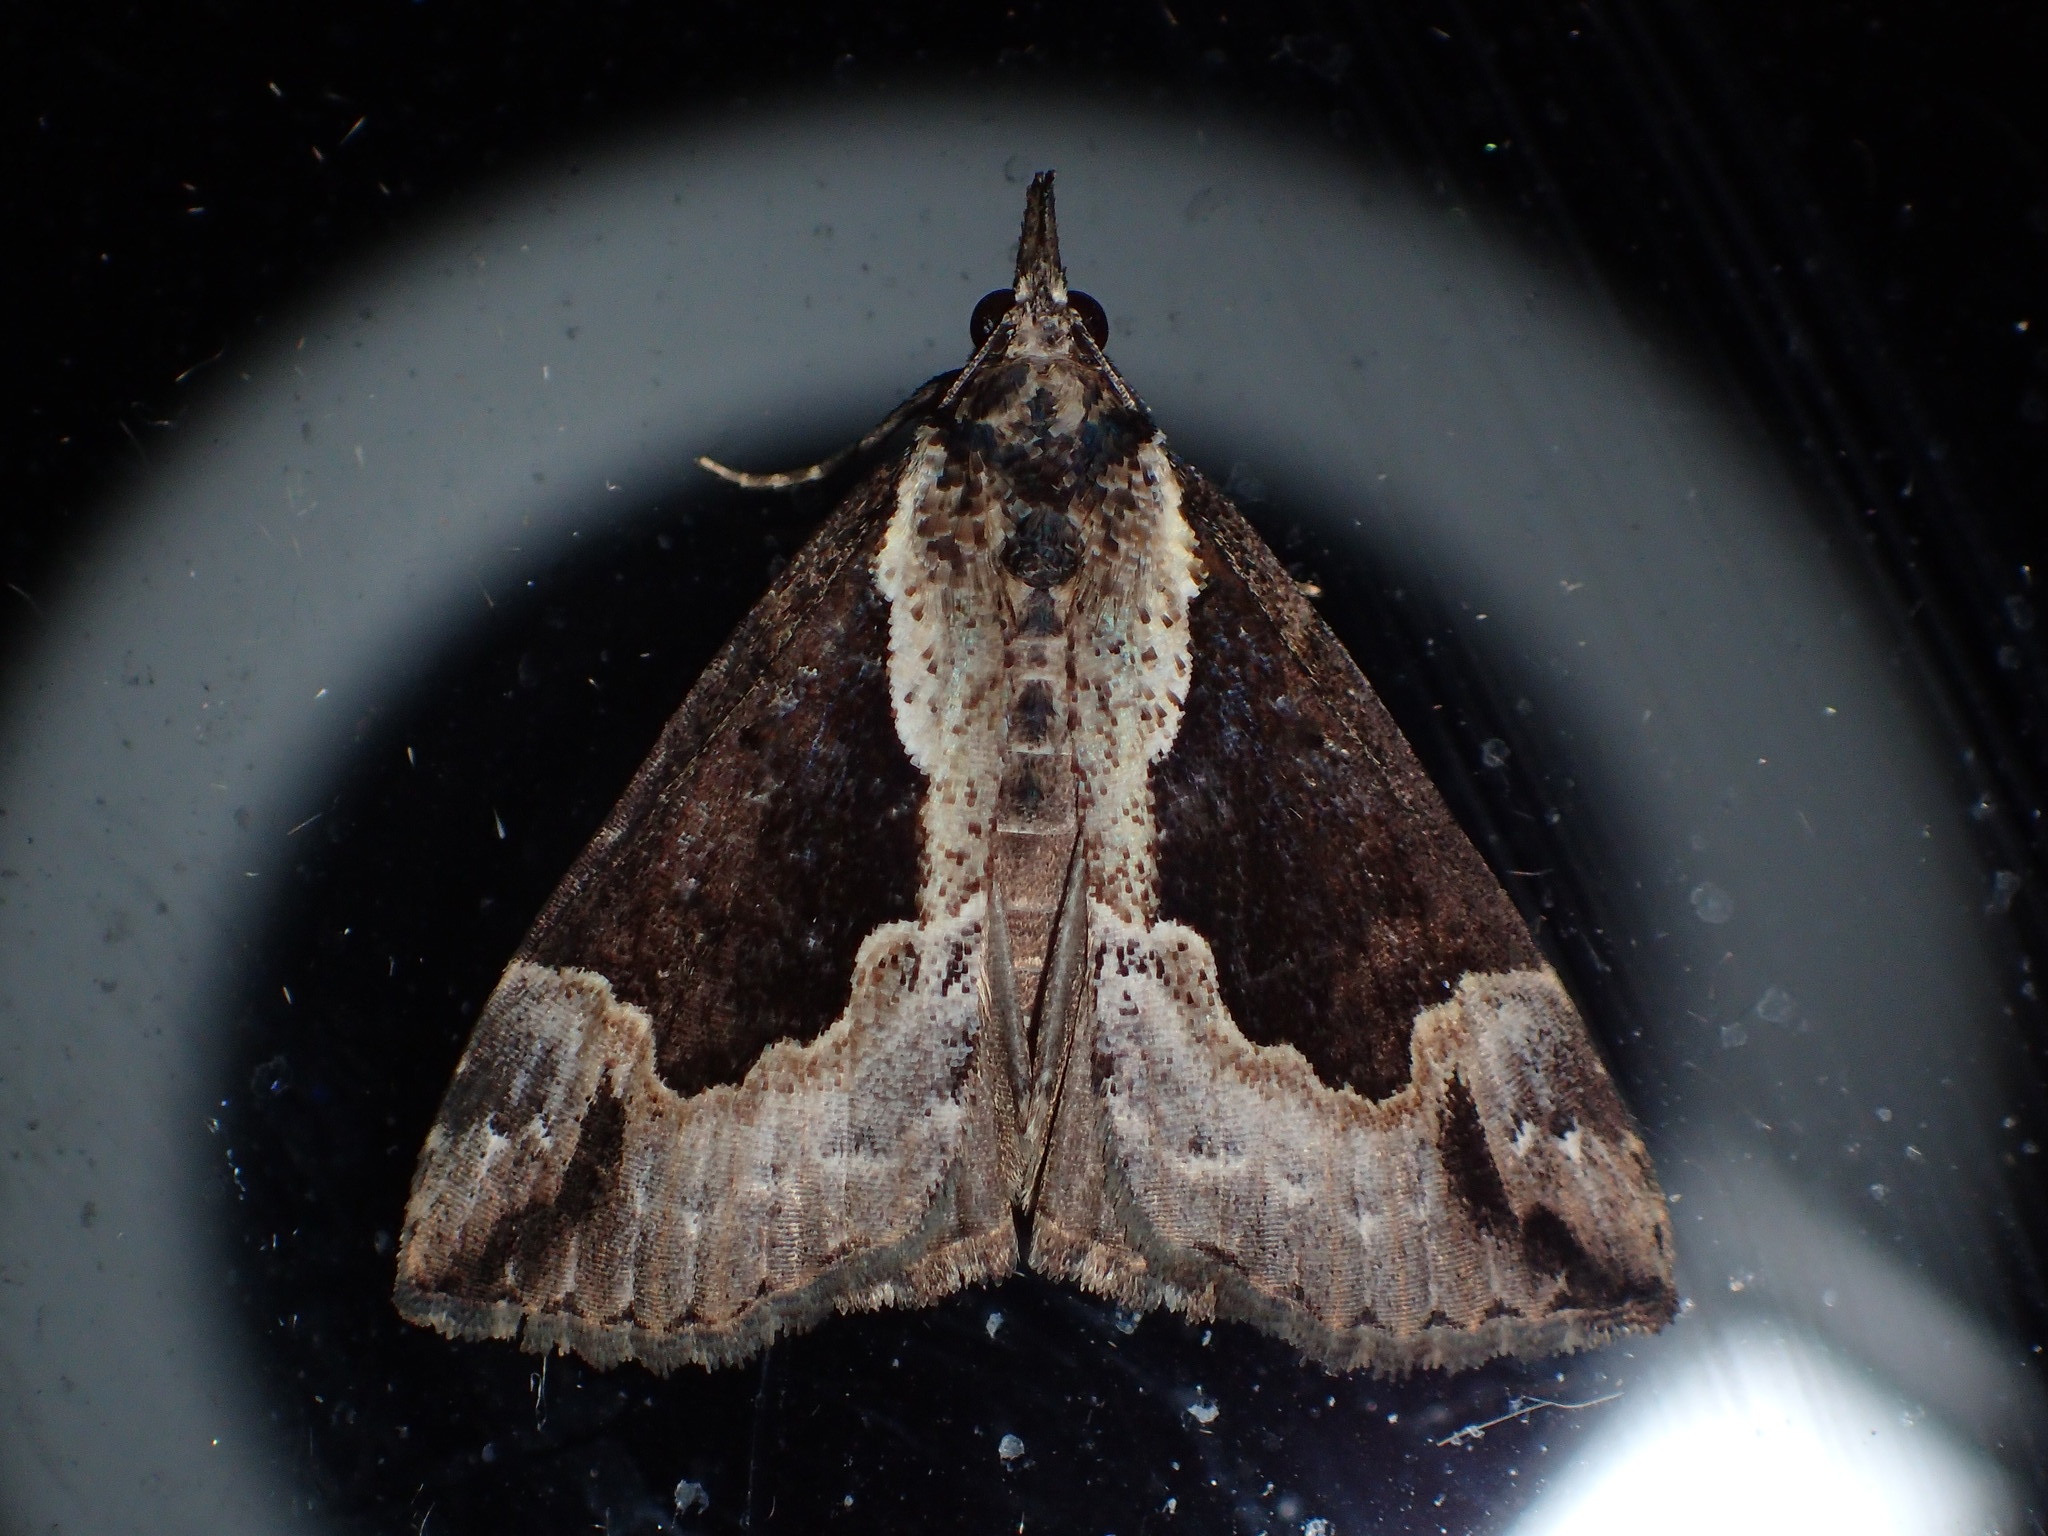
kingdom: Animalia
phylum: Arthropoda
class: Insecta
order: Lepidoptera
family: Erebidae
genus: Hypena
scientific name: Hypena baltimoralis
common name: Baltimore snout
